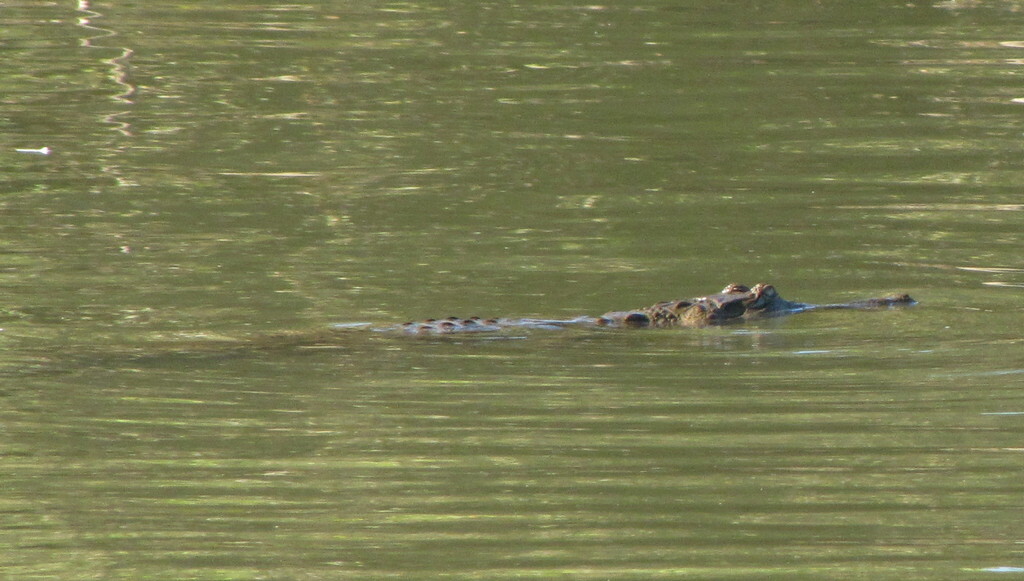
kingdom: Animalia
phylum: Chordata
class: Crocodylia
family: Crocodylidae
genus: Crocodylus
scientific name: Crocodylus johnsoni
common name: Freshwater crocodile
